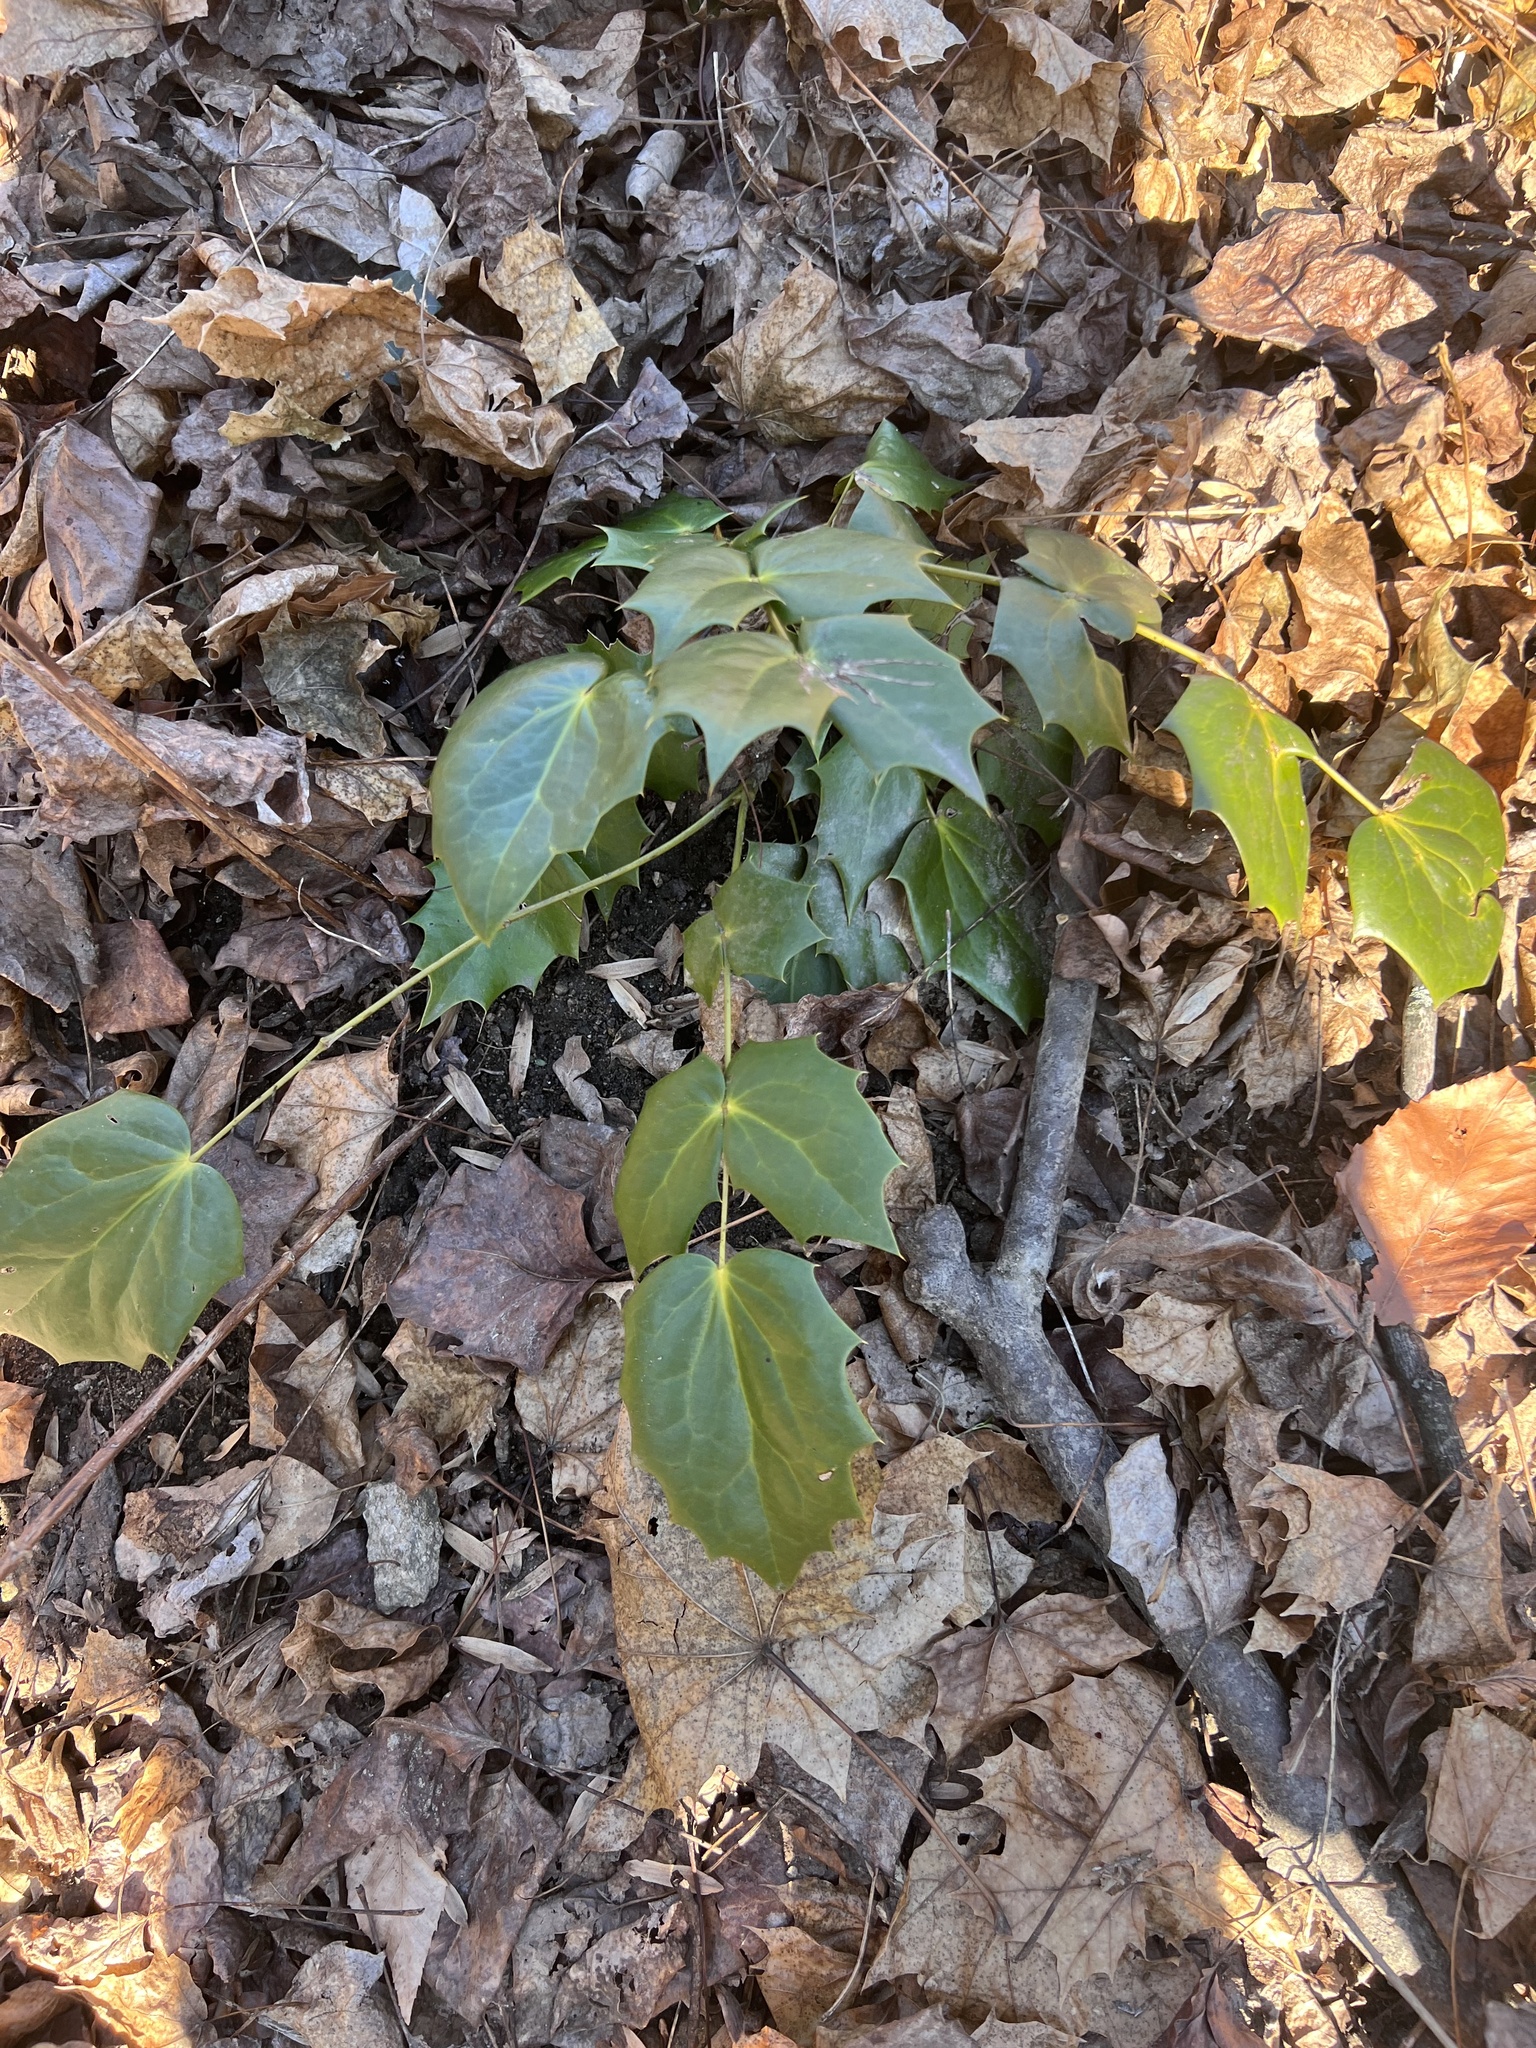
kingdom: Plantae
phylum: Tracheophyta
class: Magnoliopsida
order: Ranunculales
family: Berberidaceae
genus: Mahonia
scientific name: Mahonia bealei
